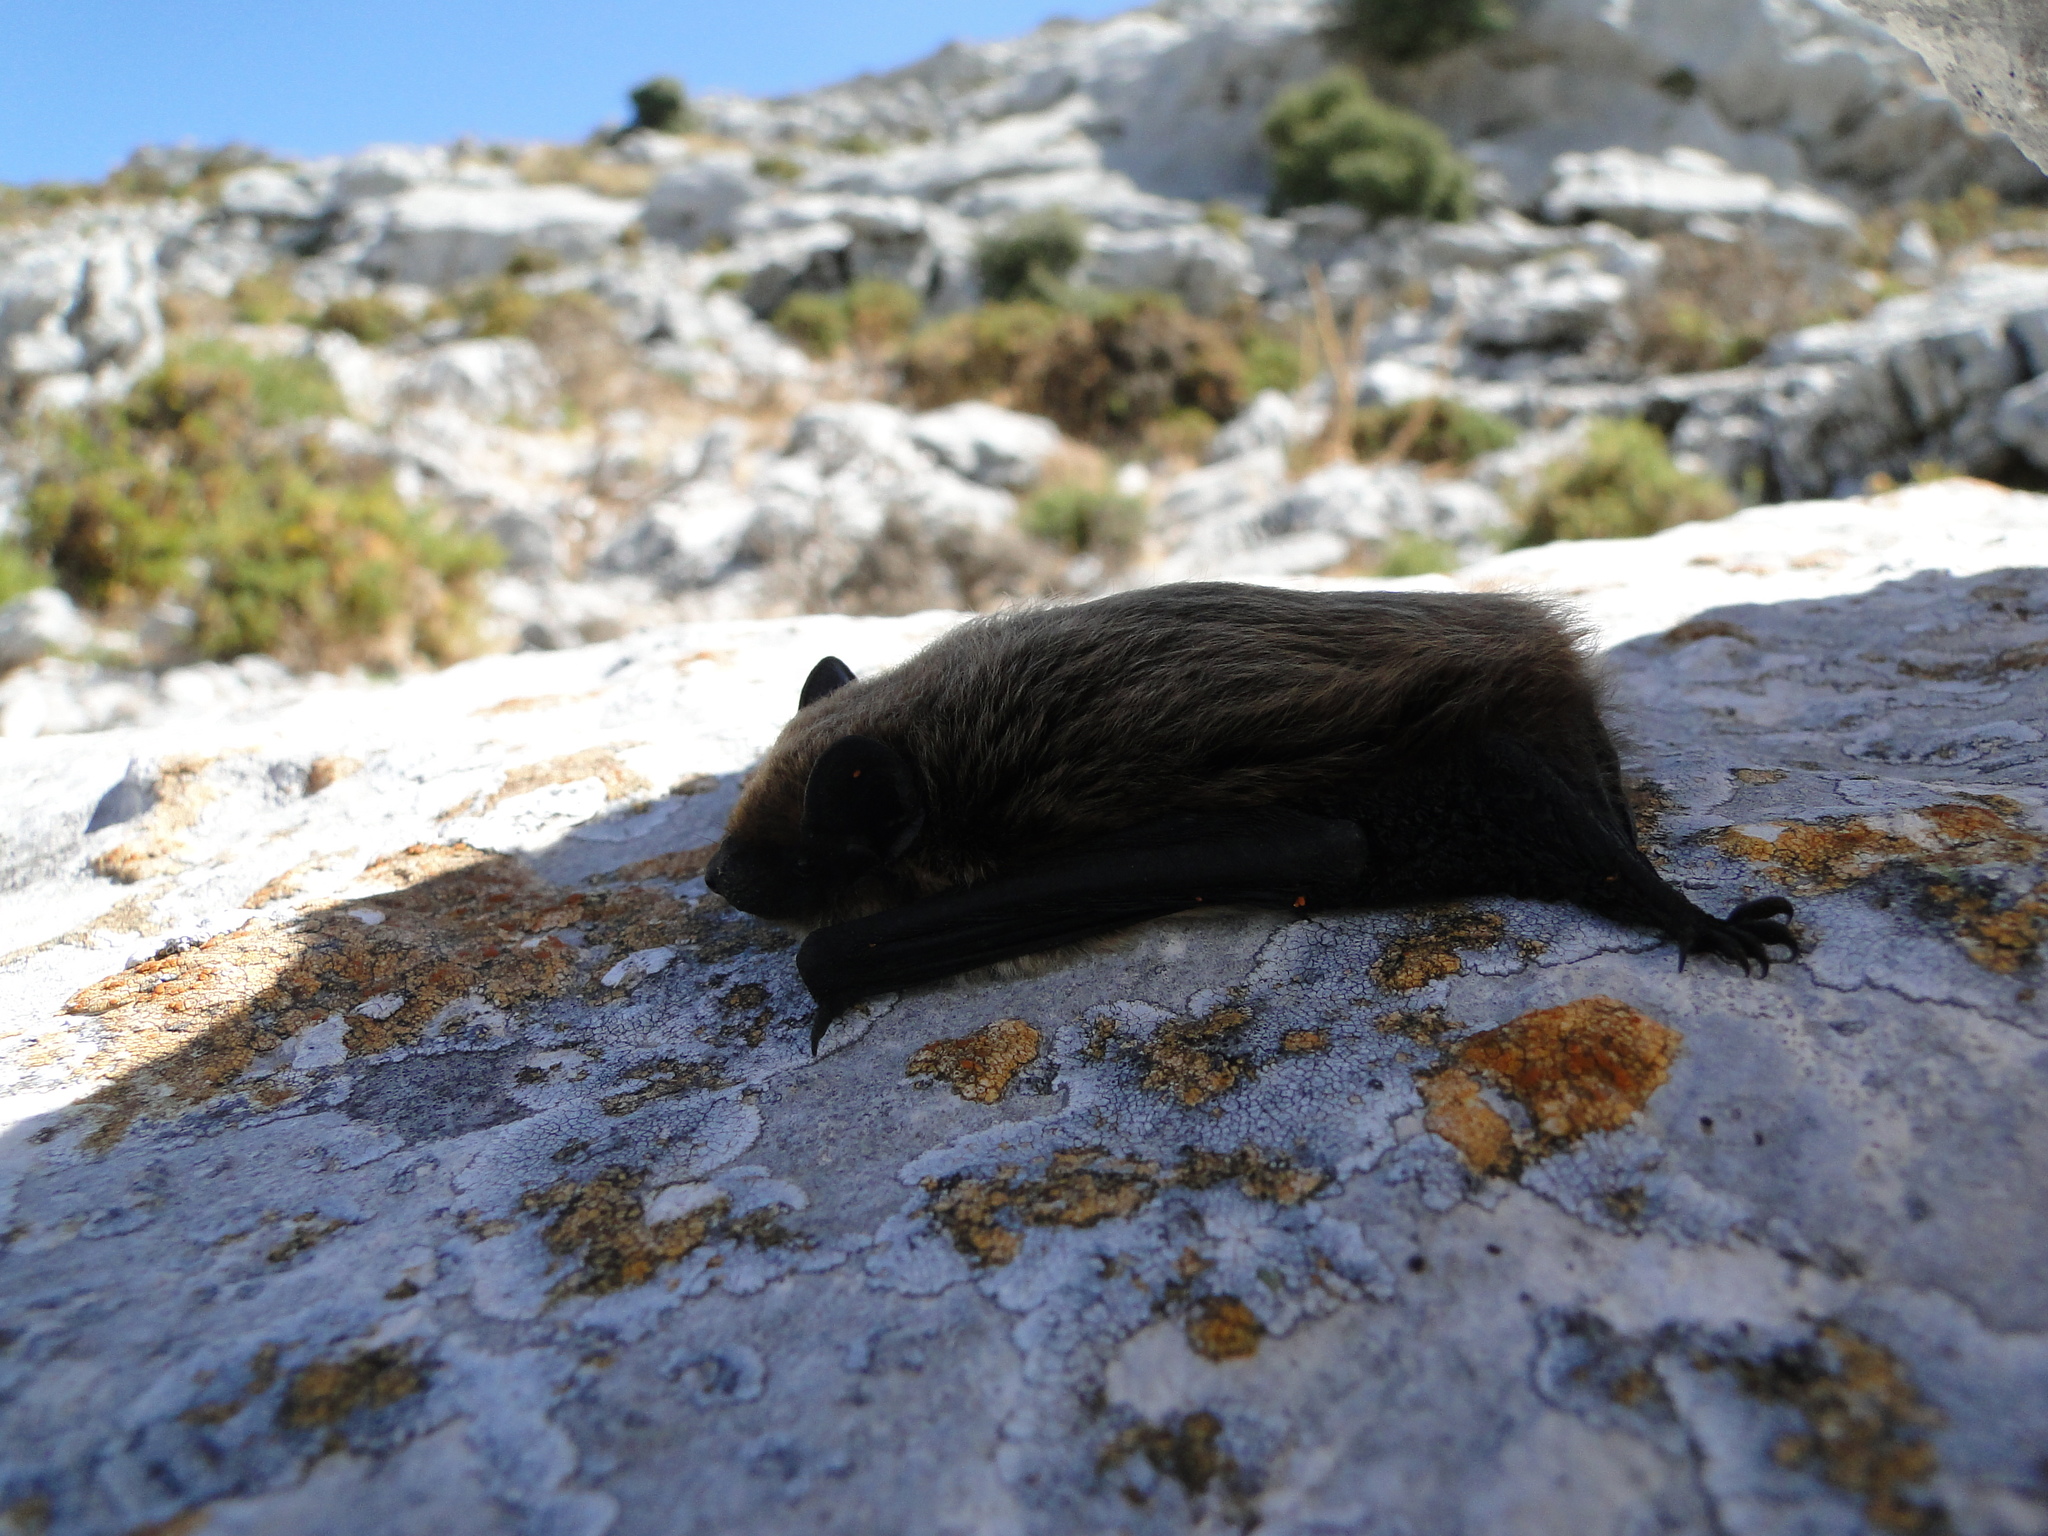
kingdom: Animalia
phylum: Chordata
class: Mammalia
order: Chiroptera
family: Vespertilionidae
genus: Hypsugo
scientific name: Hypsugo savii
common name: Savi's pipistrelle
